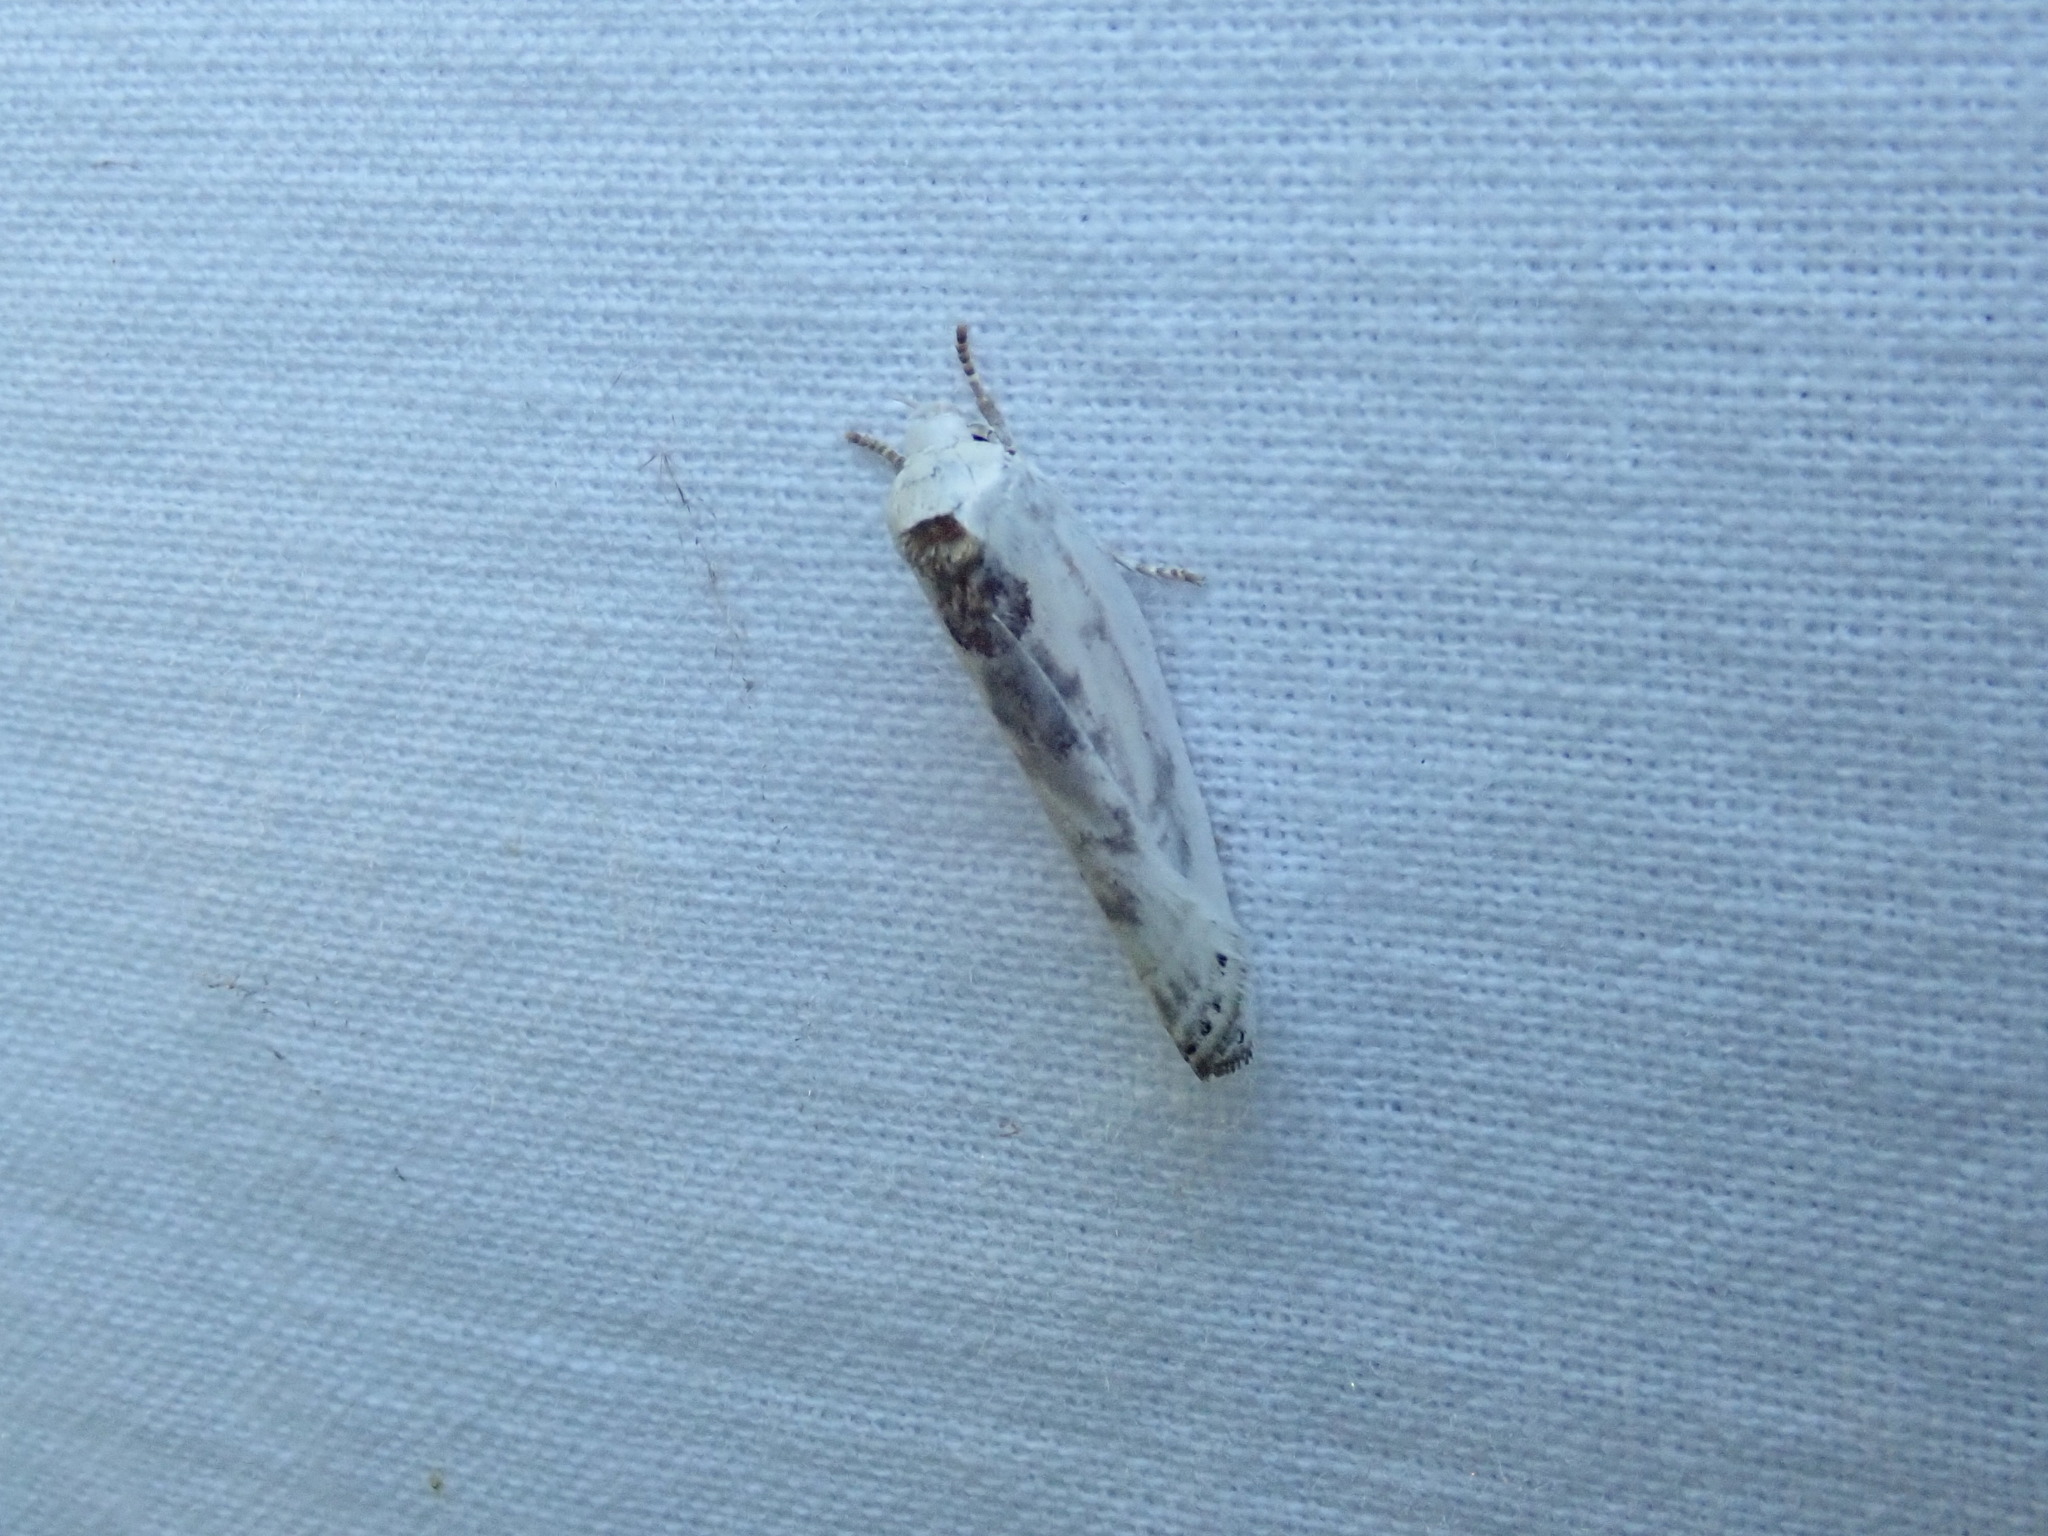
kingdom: Animalia
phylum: Arthropoda
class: Insecta
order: Lepidoptera
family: Depressariidae
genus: Antaeotricha
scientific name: Antaeotricha schlaegeri
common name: Schlaeger's fruitworm moth
